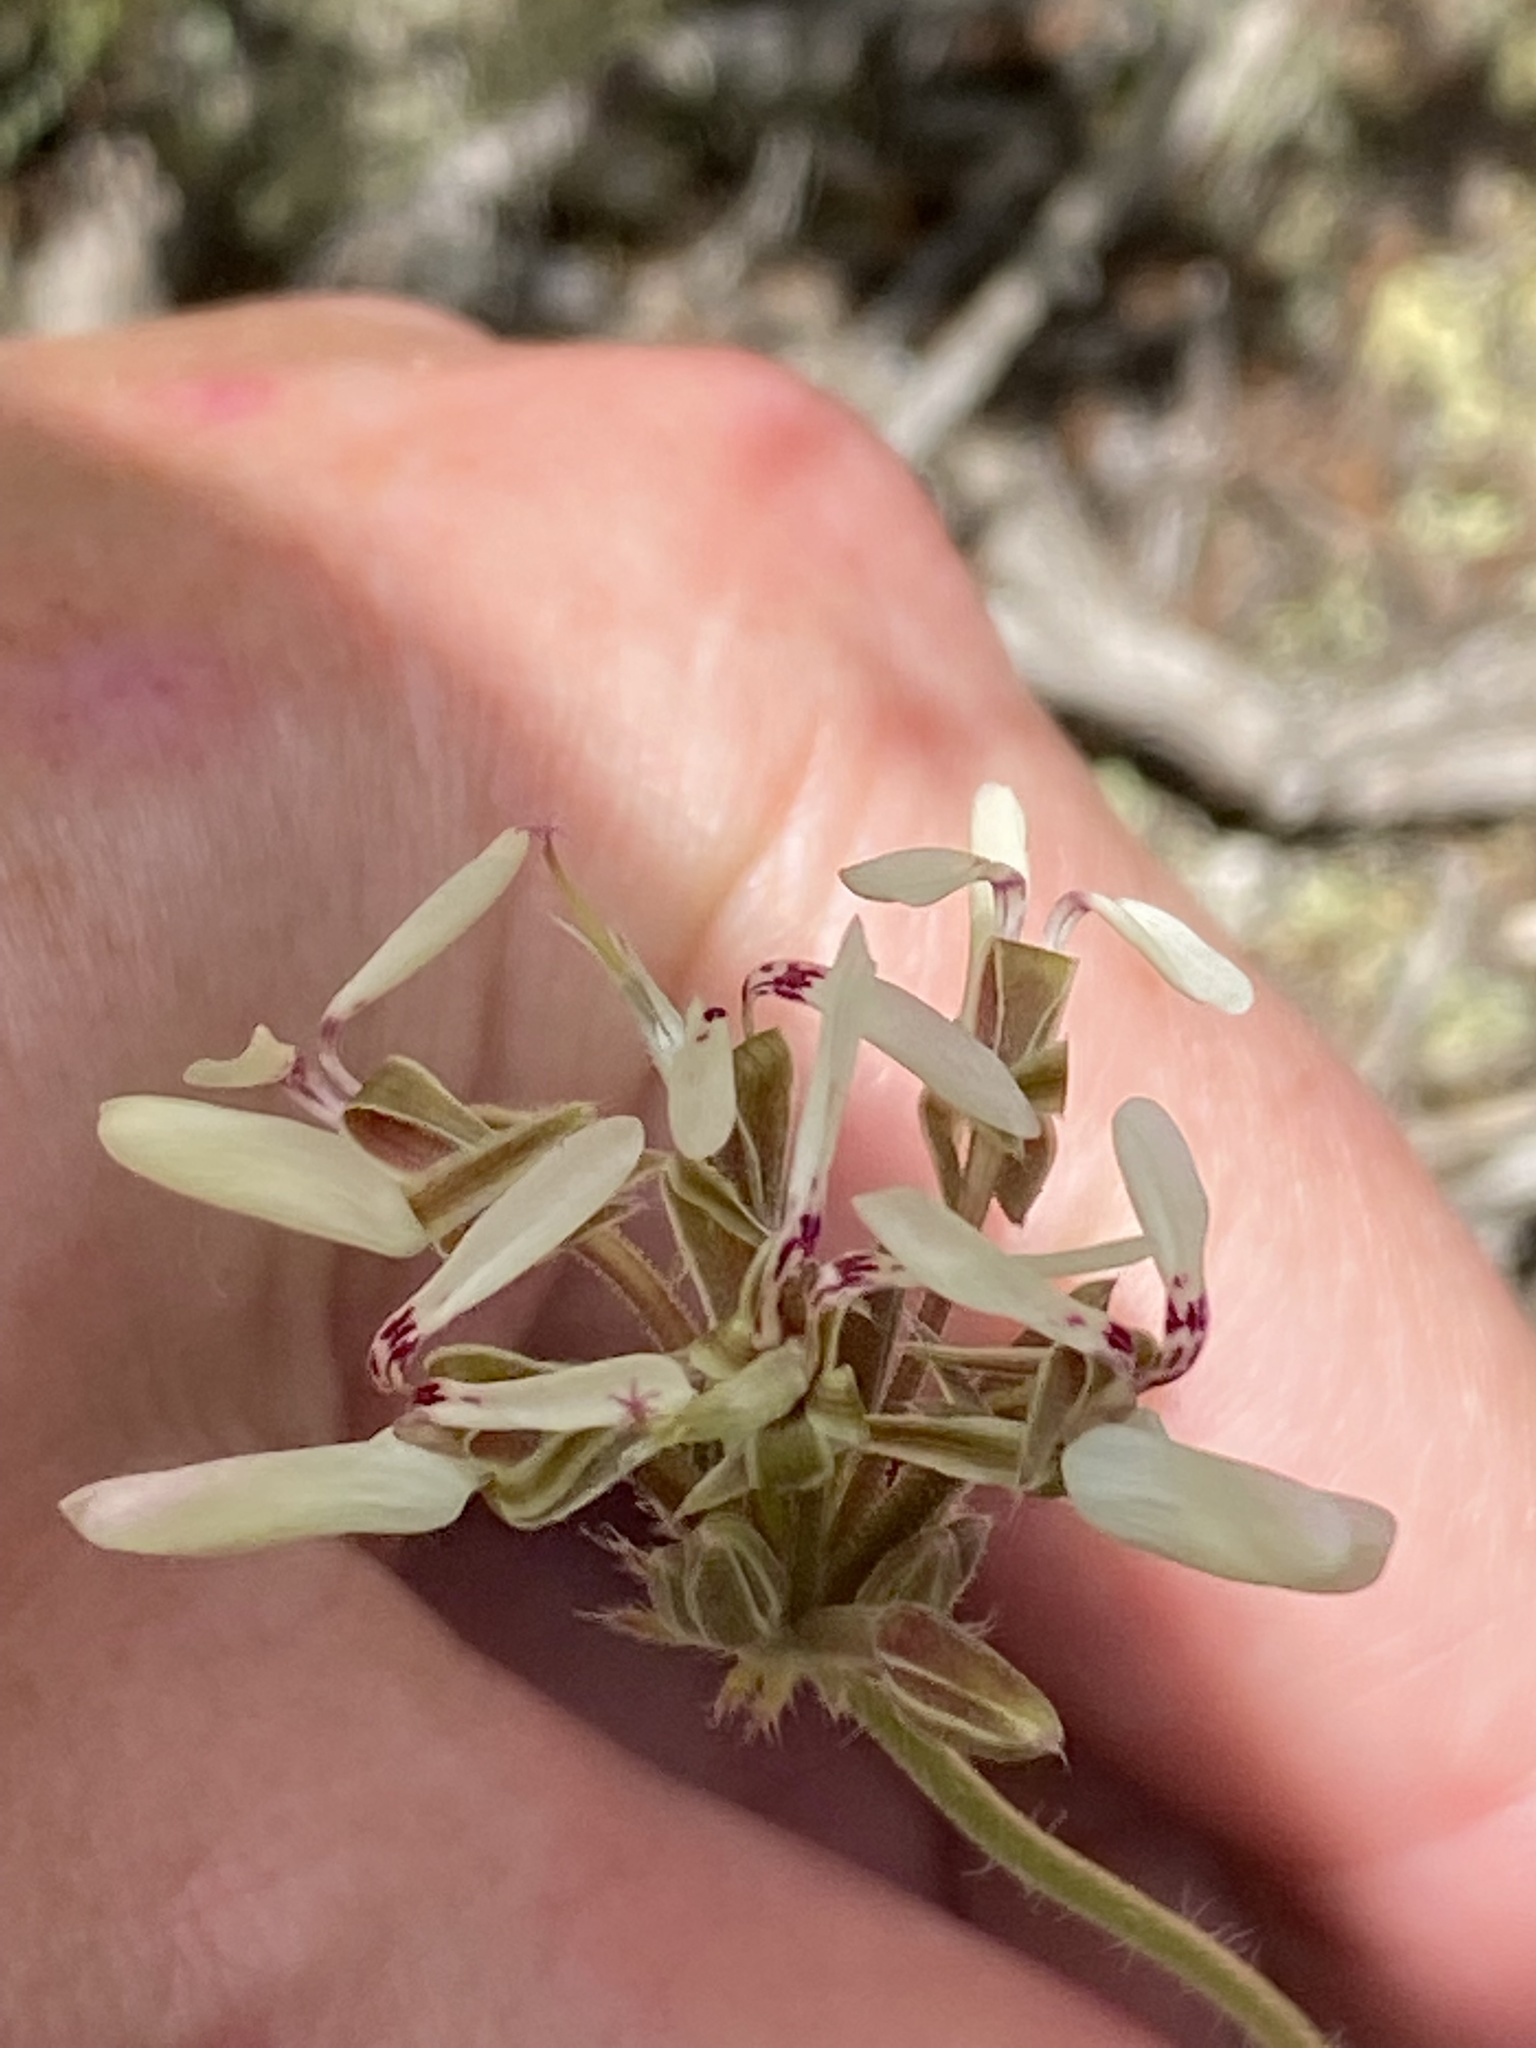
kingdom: Plantae
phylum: Tracheophyta
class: Magnoliopsida
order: Geraniales
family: Geraniaceae
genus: Pelargonium
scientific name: Pelargonium rapaceum
